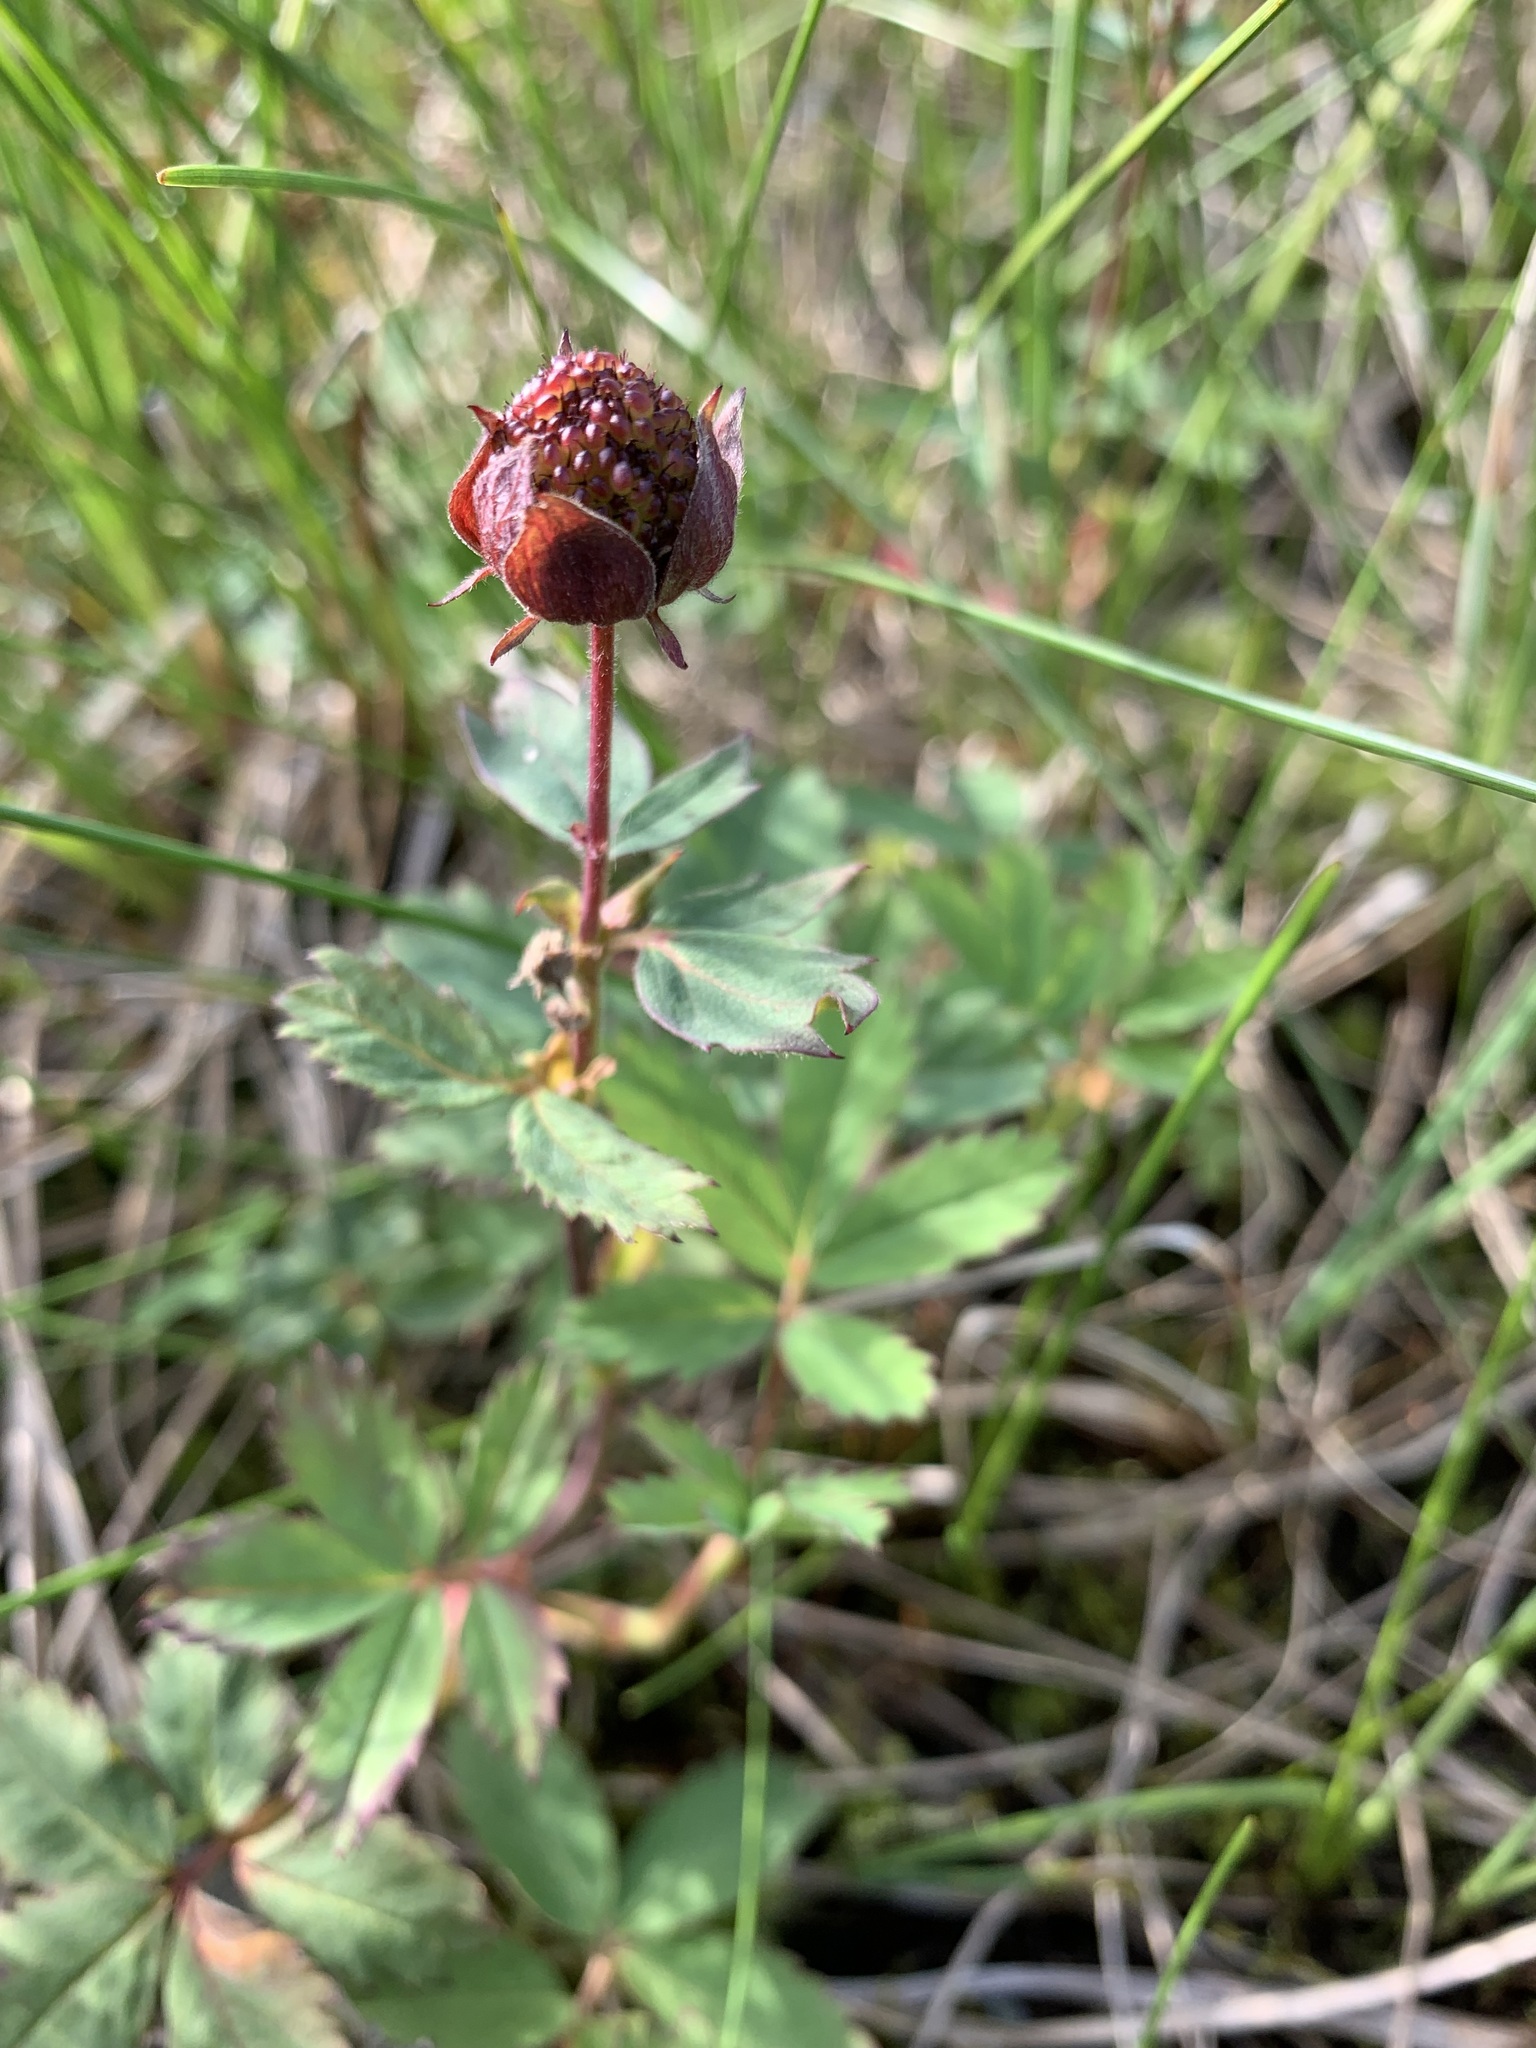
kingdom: Plantae
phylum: Tracheophyta
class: Magnoliopsida
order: Rosales
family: Rosaceae
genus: Comarum
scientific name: Comarum palustre
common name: Marsh cinquefoil
